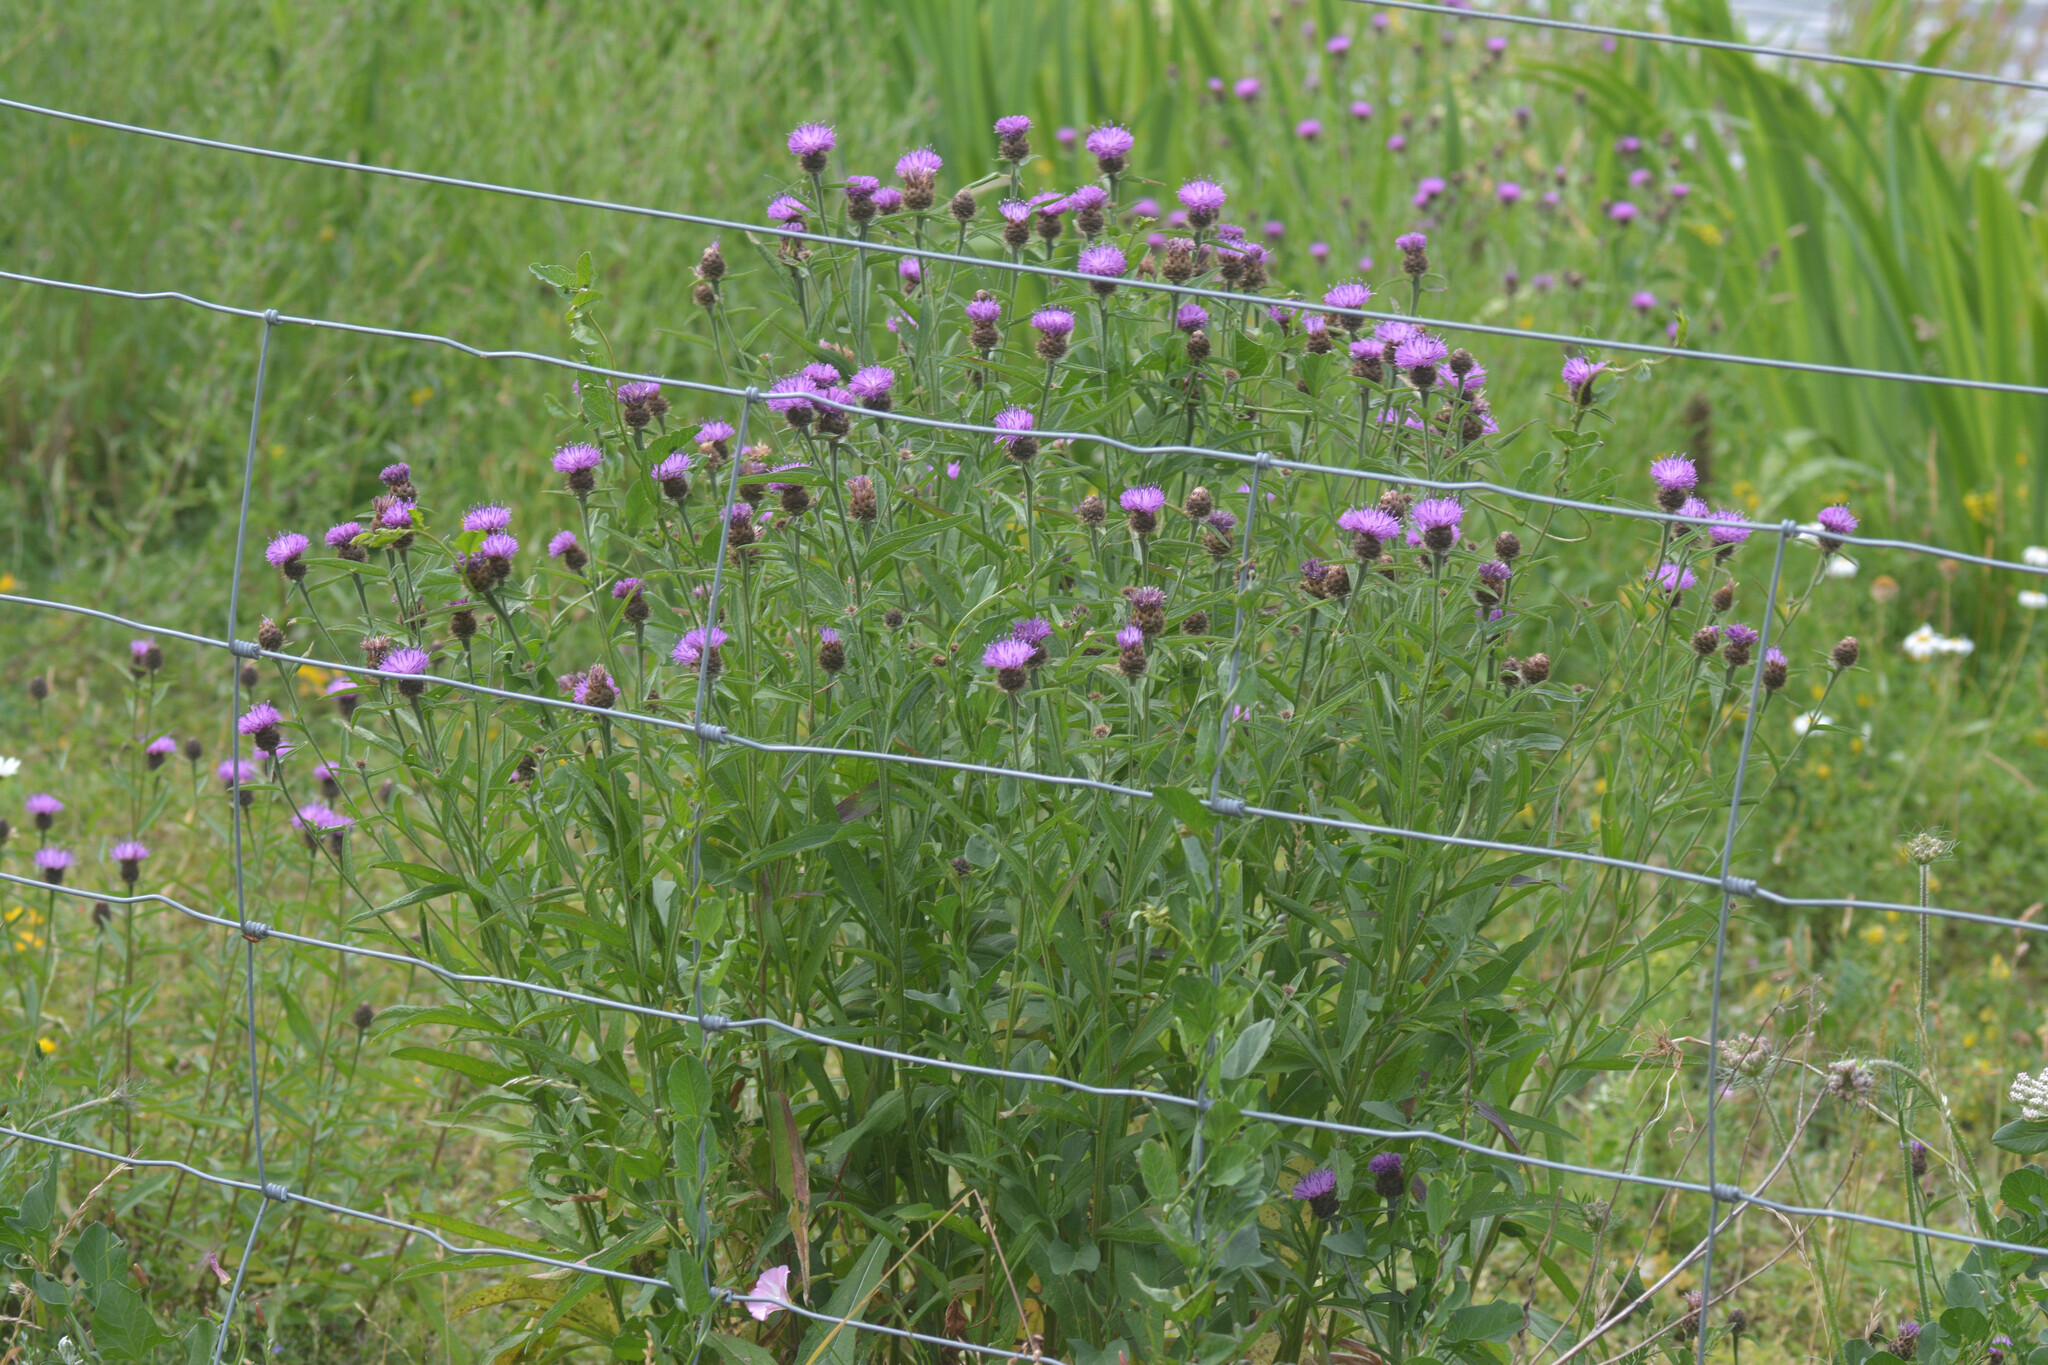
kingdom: Plantae
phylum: Tracheophyta
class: Magnoliopsida
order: Asterales
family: Asteraceae
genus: Centaurea
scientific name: Centaurea nigra
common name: Lesser knapweed
